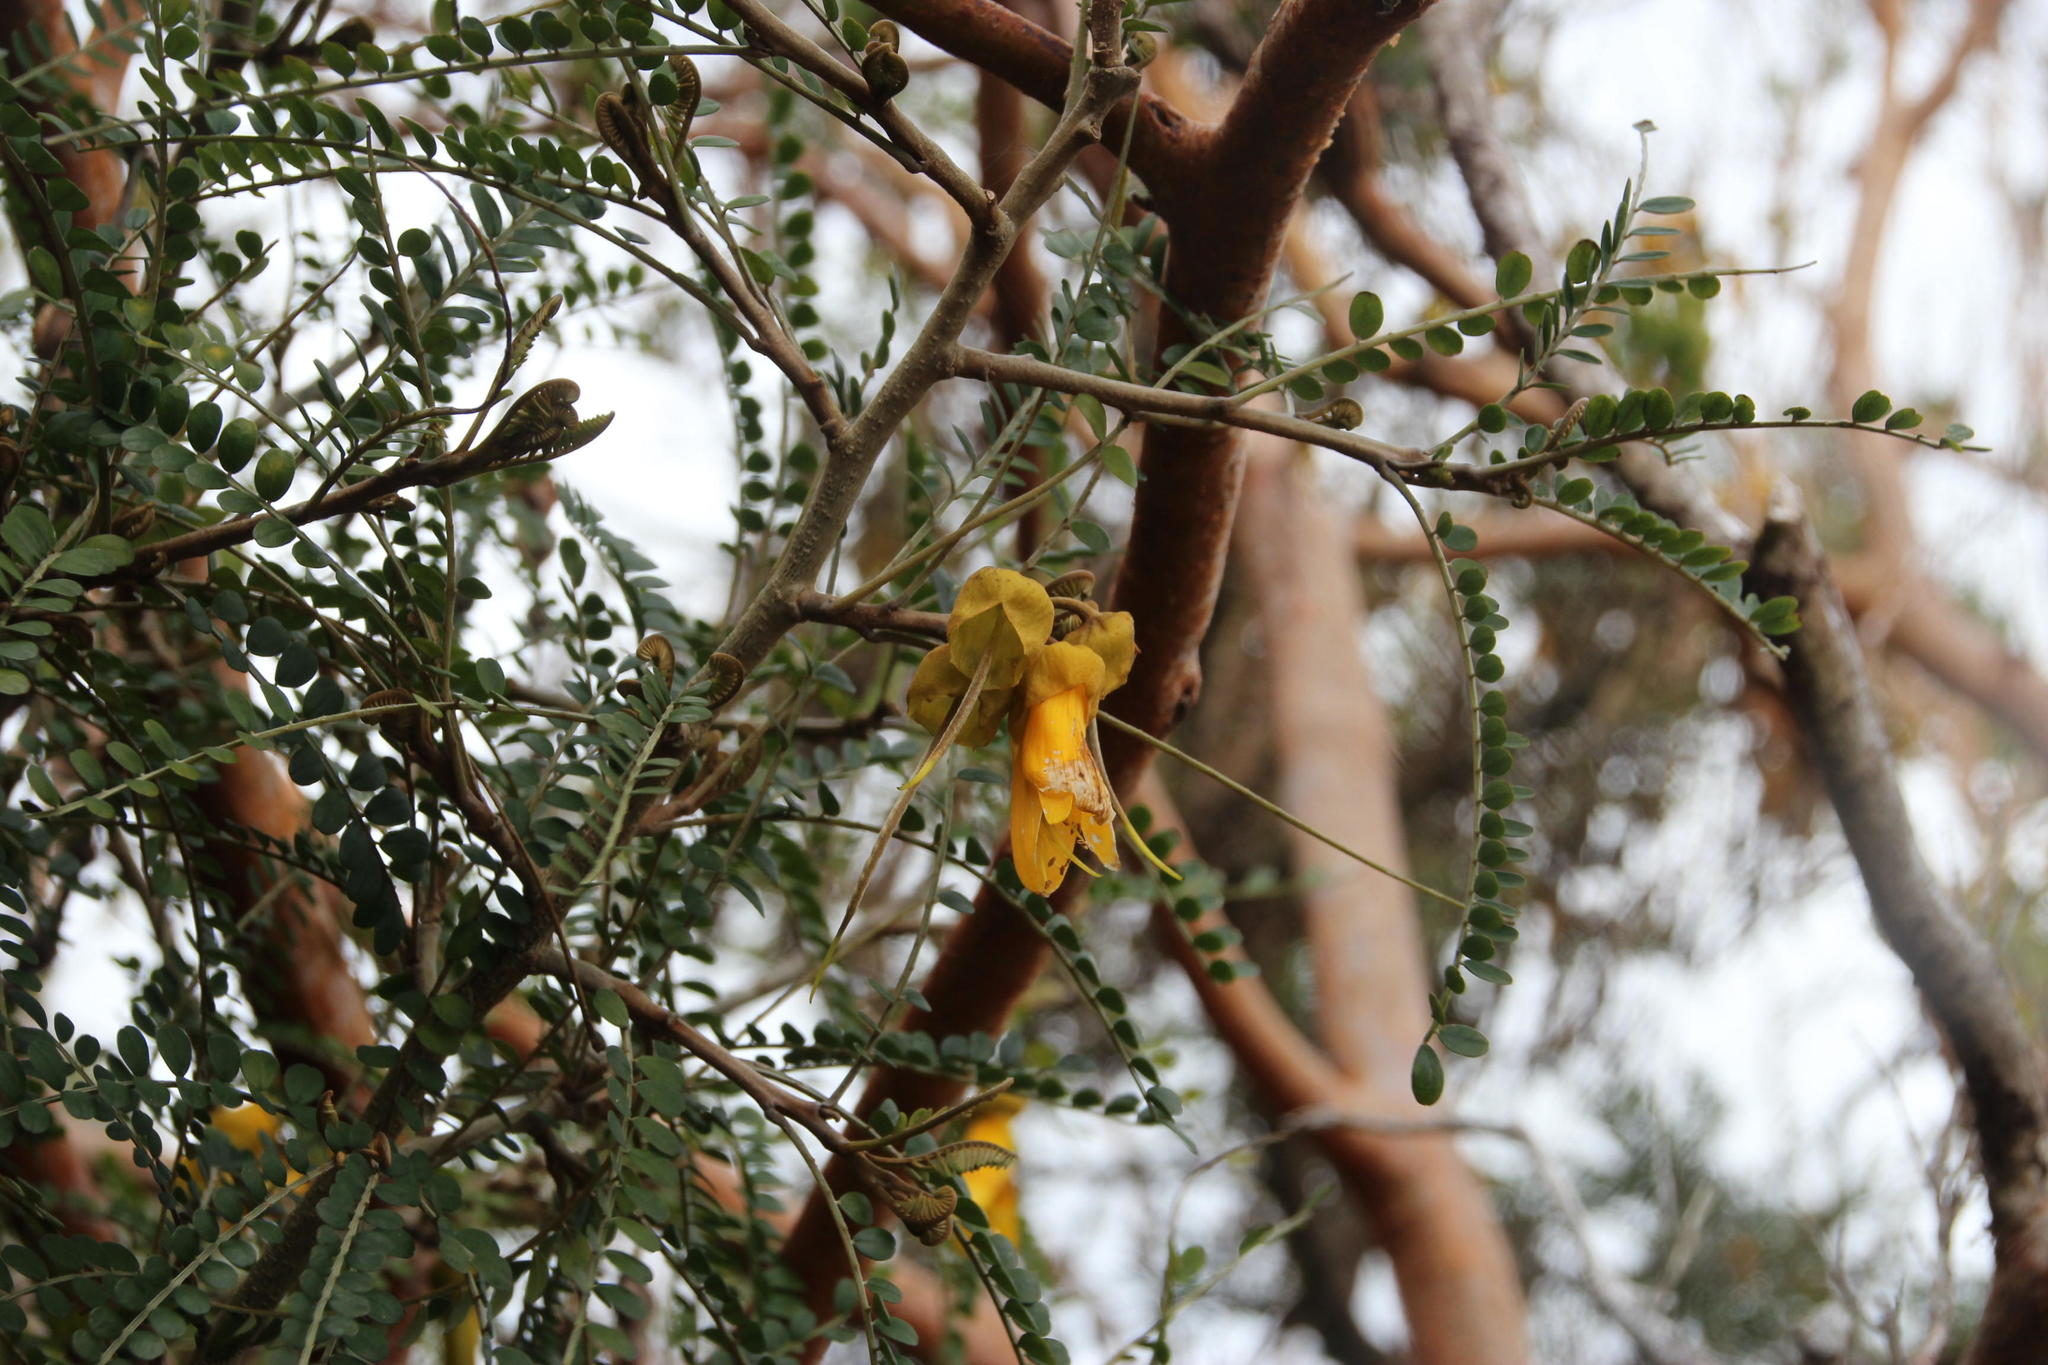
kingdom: Plantae
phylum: Tracheophyta
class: Magnoliopsida
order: Fabales
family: Fabaceae
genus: Sophora
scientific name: Sophora cassioides
